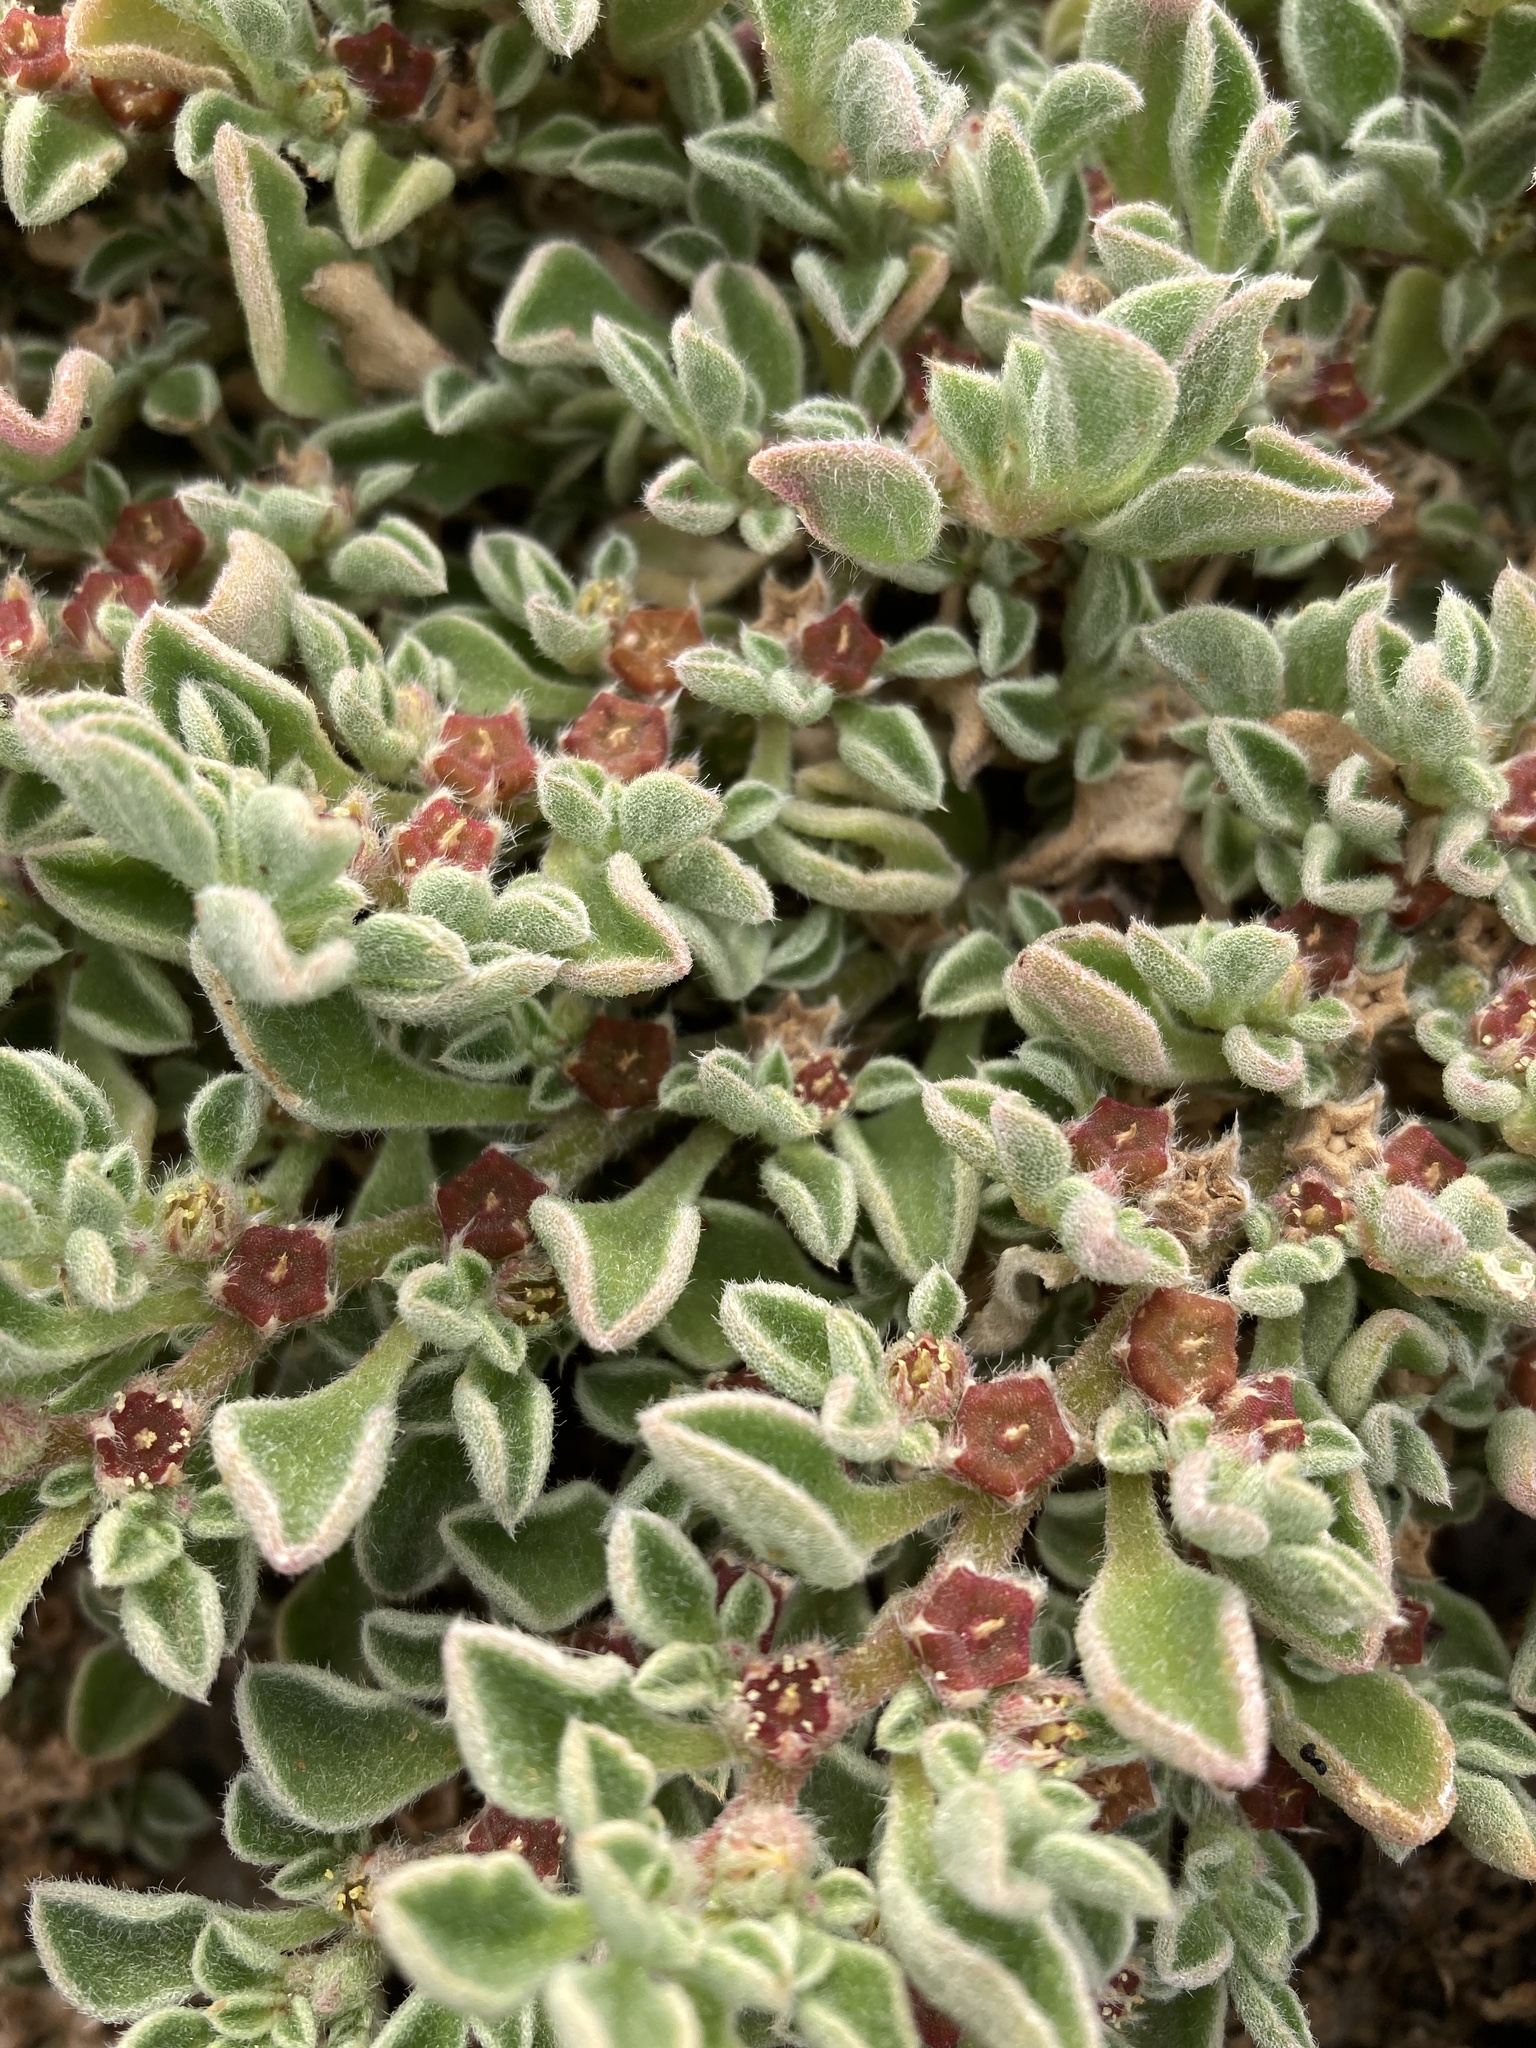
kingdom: Plantae
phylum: Tracheophyta
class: Magnoliopsida
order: Caryophyllales
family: Aizoaceae
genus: Aizoon
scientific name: Aizoon canariense
